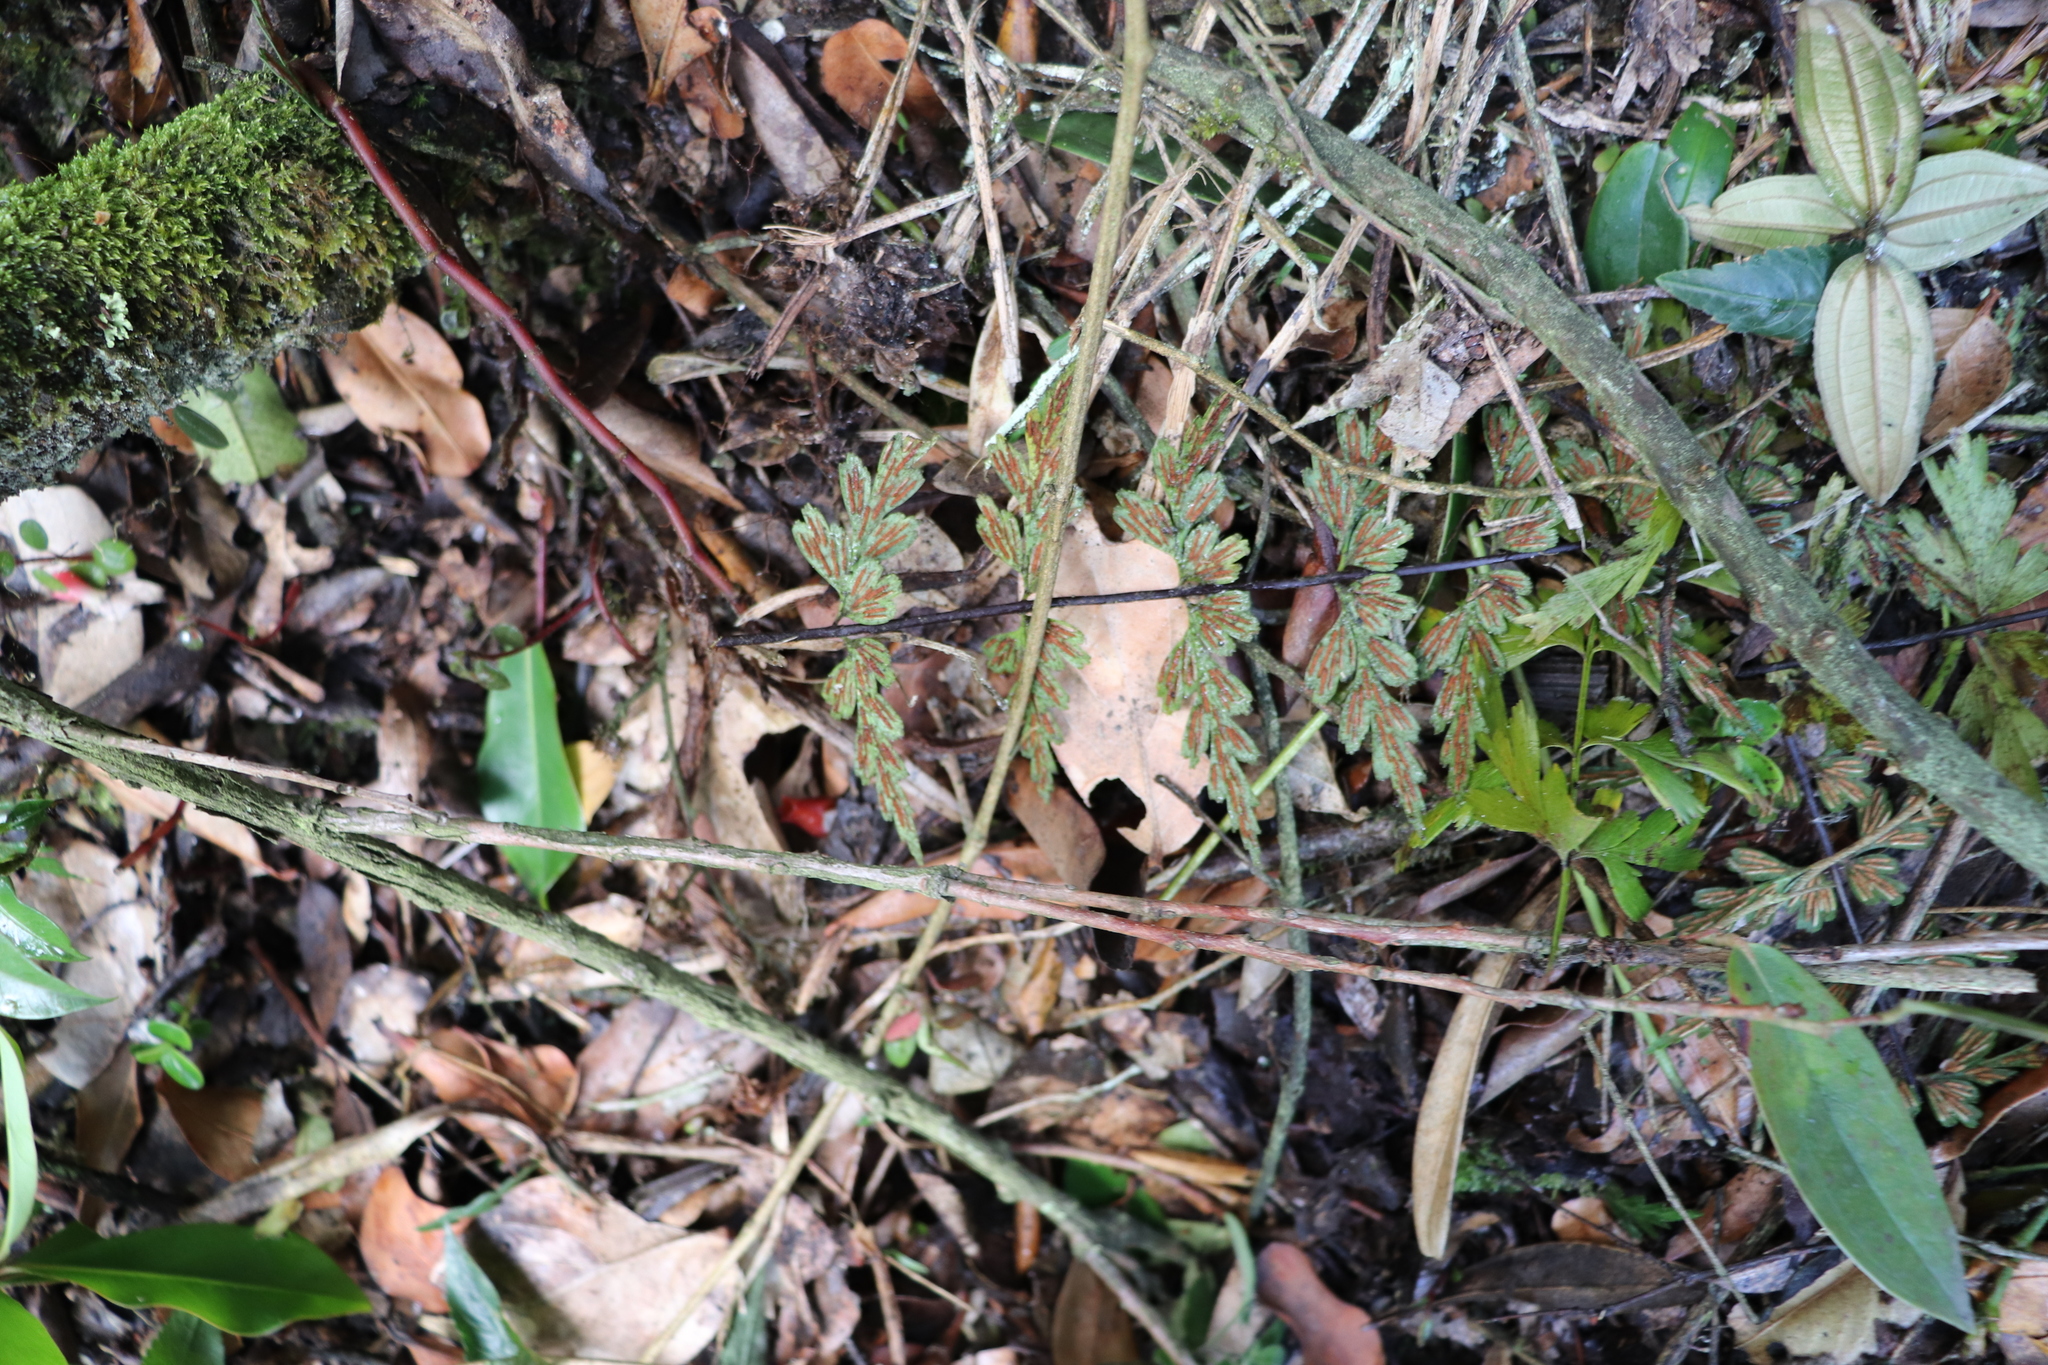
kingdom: Plantae
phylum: Tracheophyta
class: Polypodiopsida
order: Polypodiales
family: Aspleniaceae
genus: Asplenium
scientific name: Asplenium praemorsum
